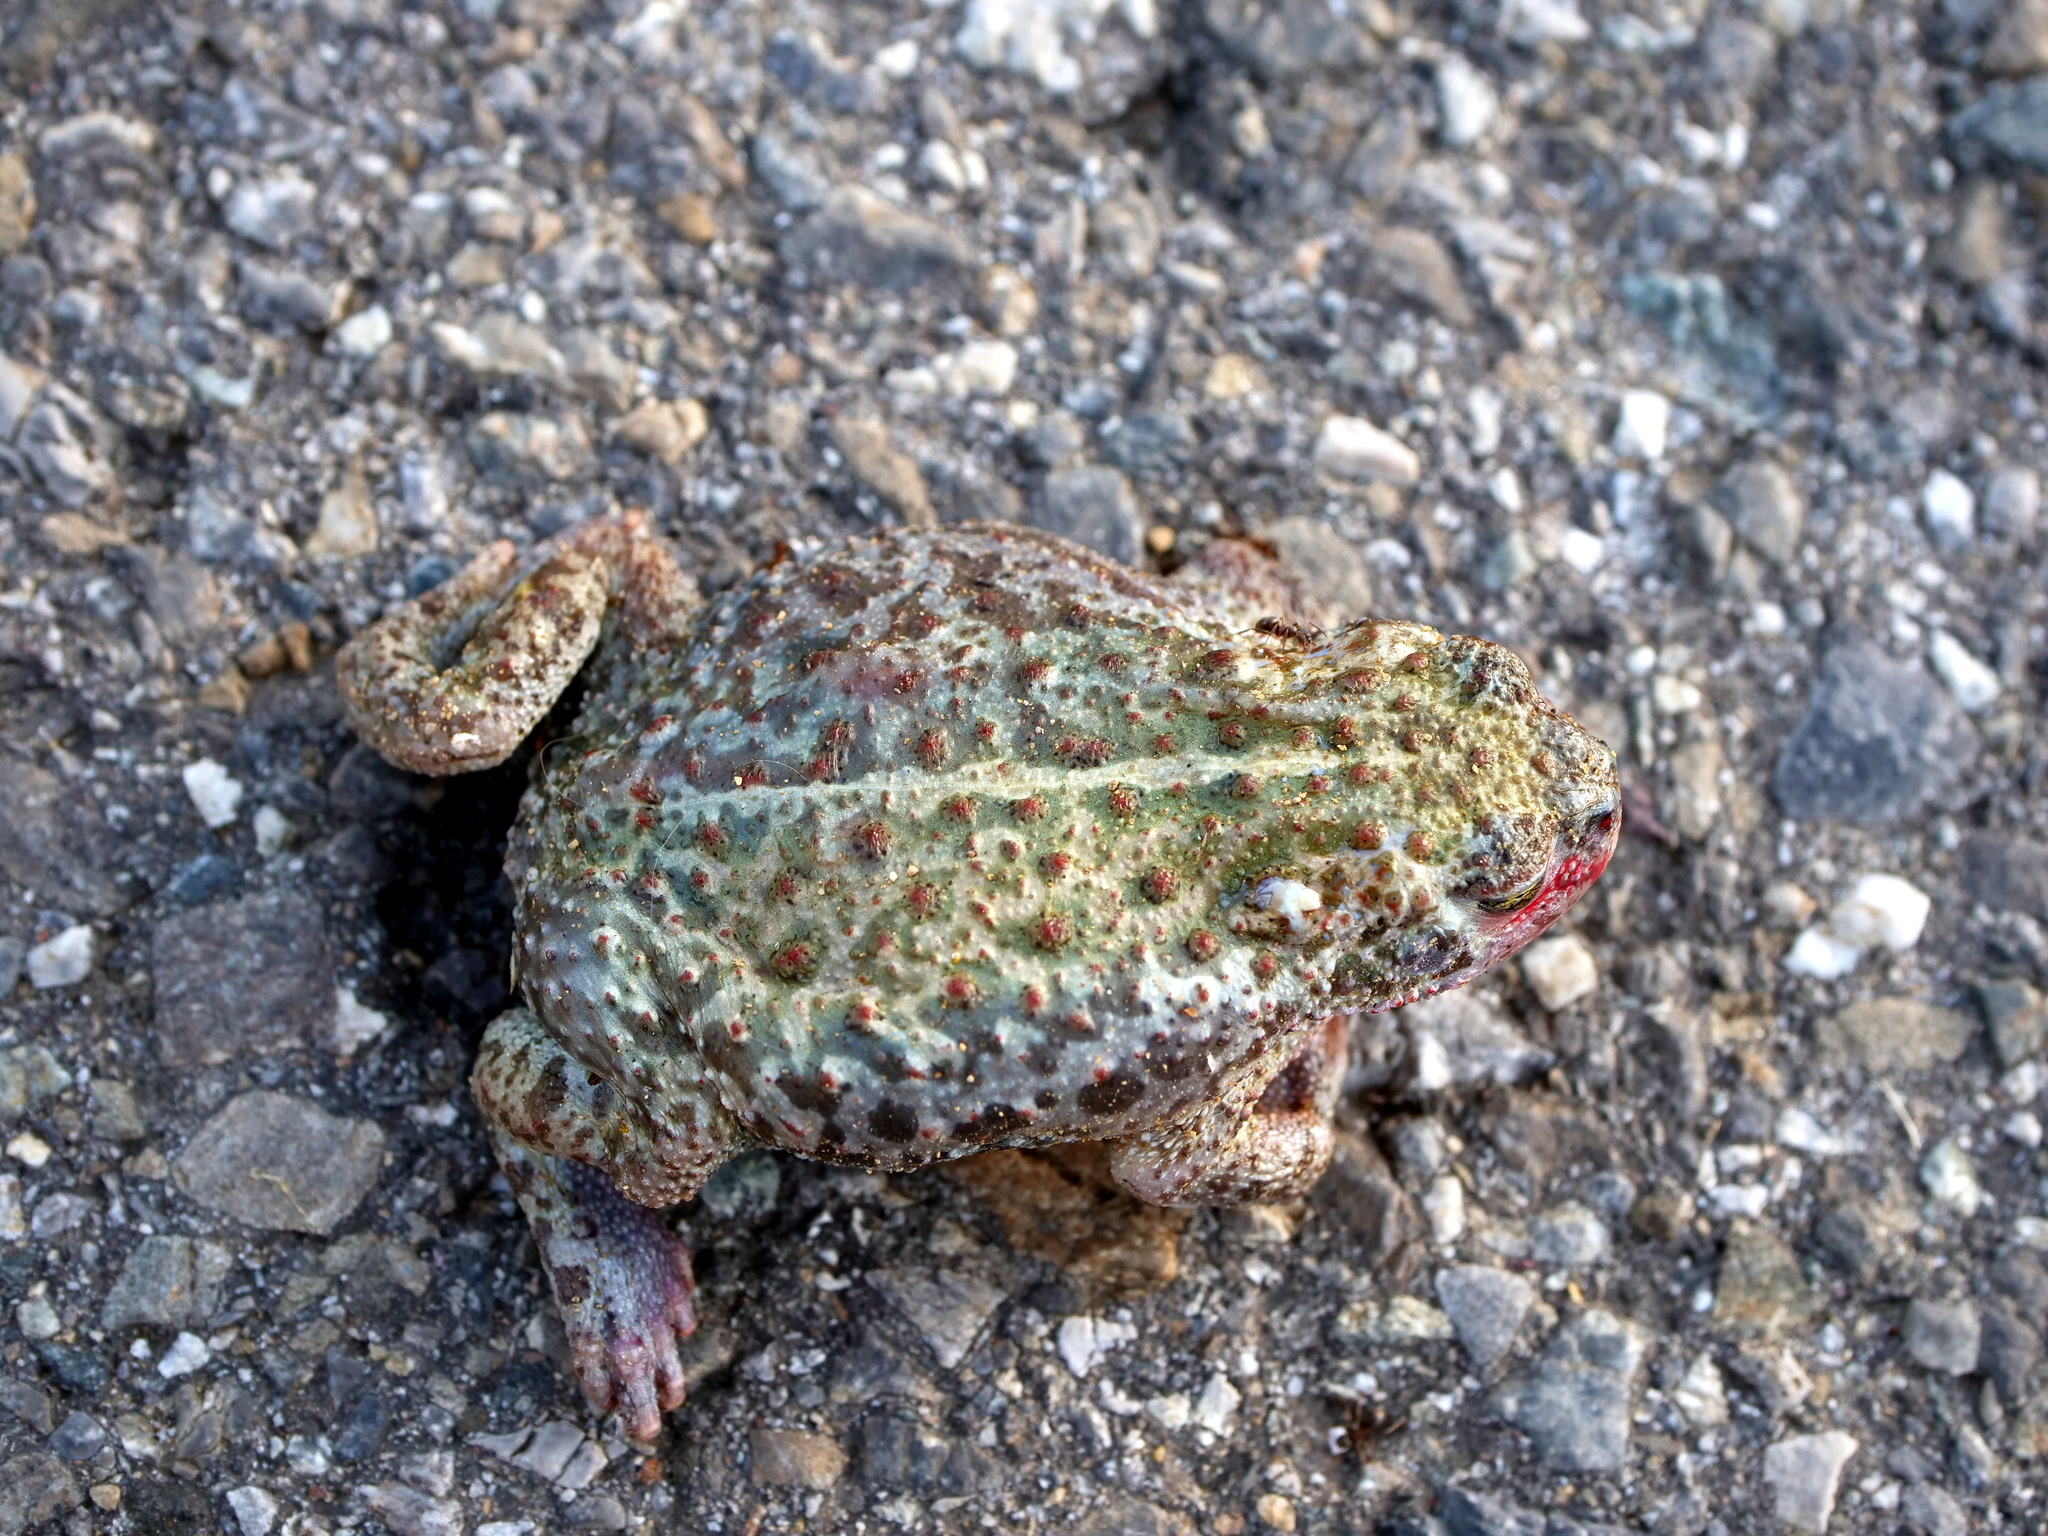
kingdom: Animalia
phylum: Chordata
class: Amphibia
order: Anura
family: Bufonidae
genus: Epidalea
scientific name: Epidalea calamita
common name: Natterjack toad
